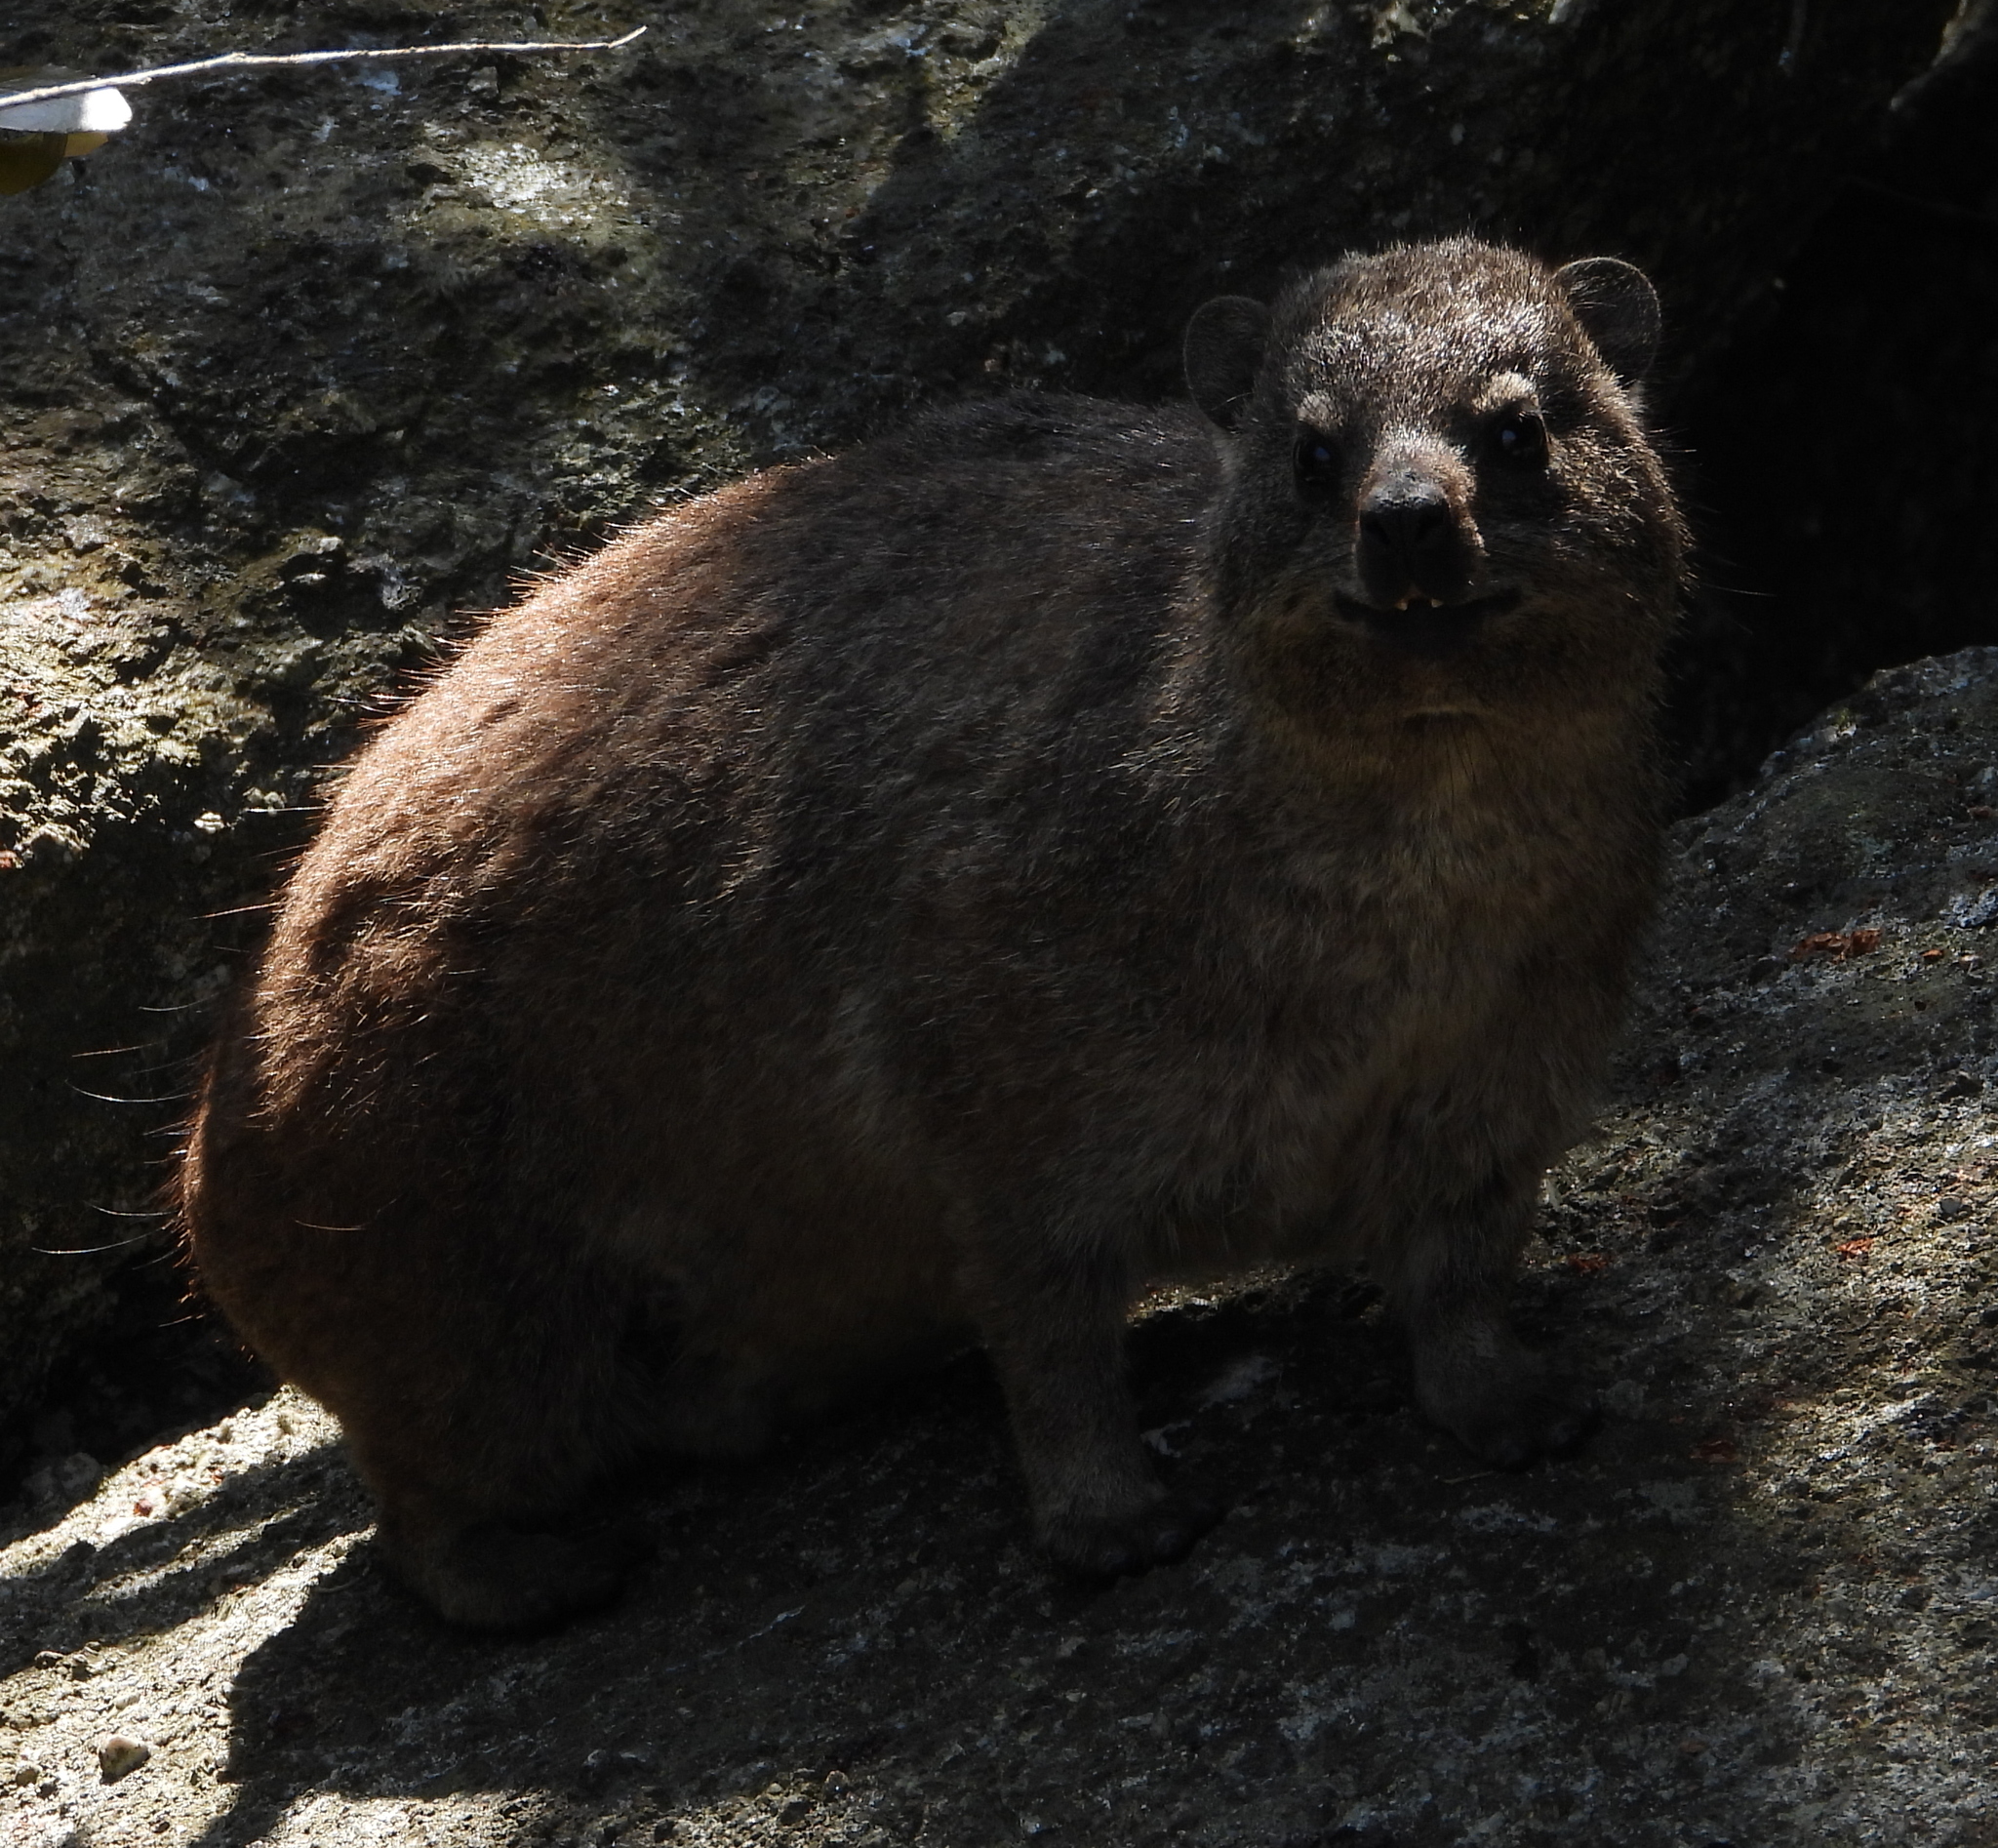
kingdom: Animalia
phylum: Chordata
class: Mammalia
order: Hyracoidea
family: Procaviidae
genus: Procavia
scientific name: Procavia capensis
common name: Rock hyrax
